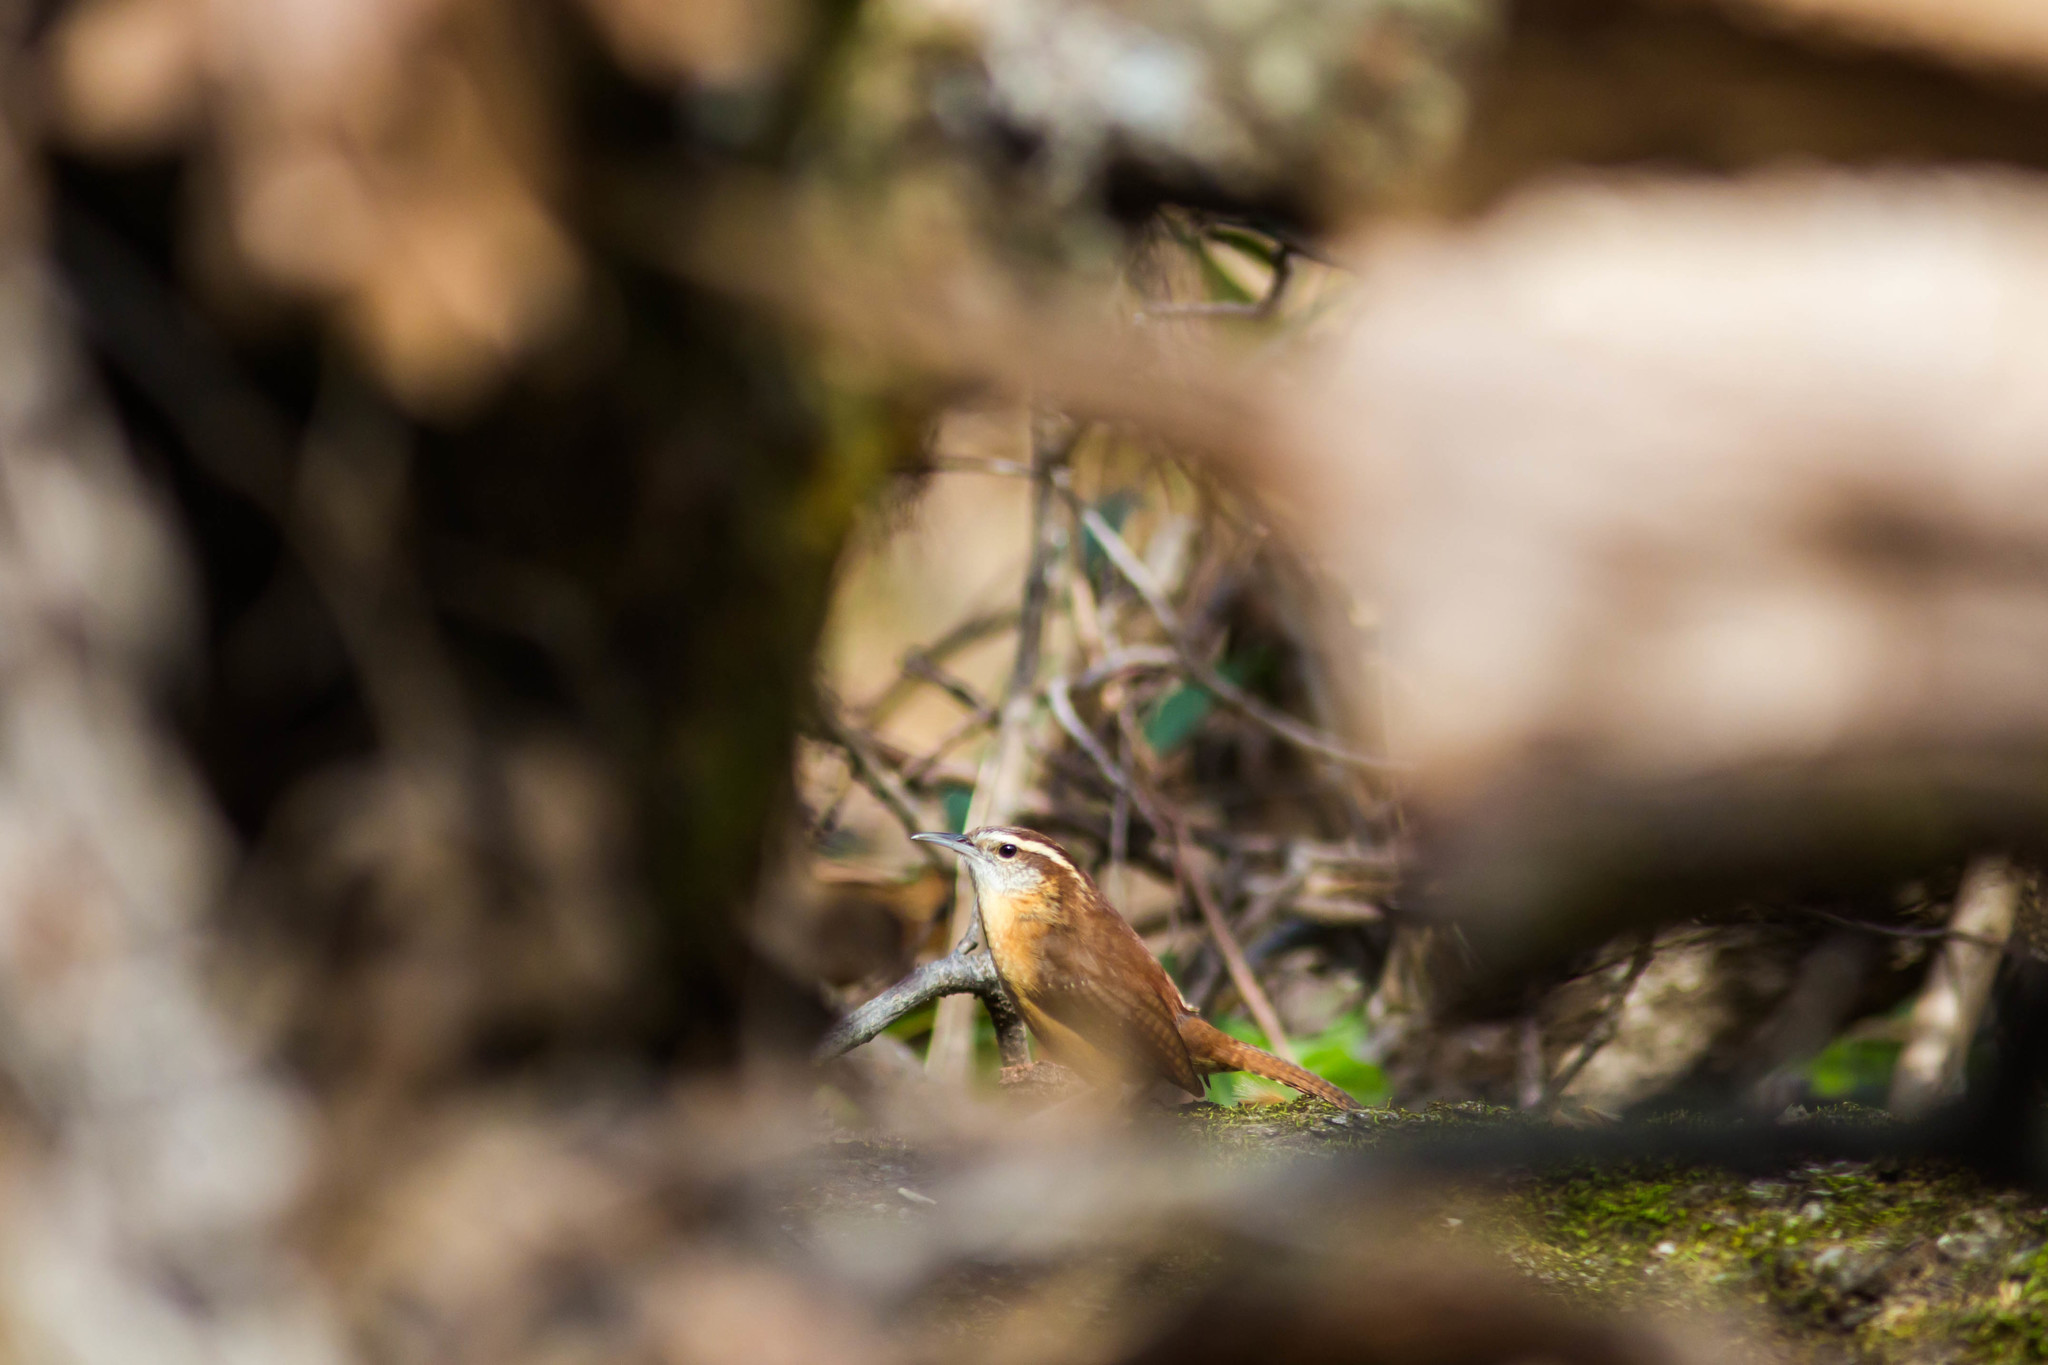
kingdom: Animalia
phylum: Chordata
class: Aves
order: Passeriformes
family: Troglodytidae
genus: Thryothorus
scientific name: Thryothorus ludovicianus
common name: Carolina wren
